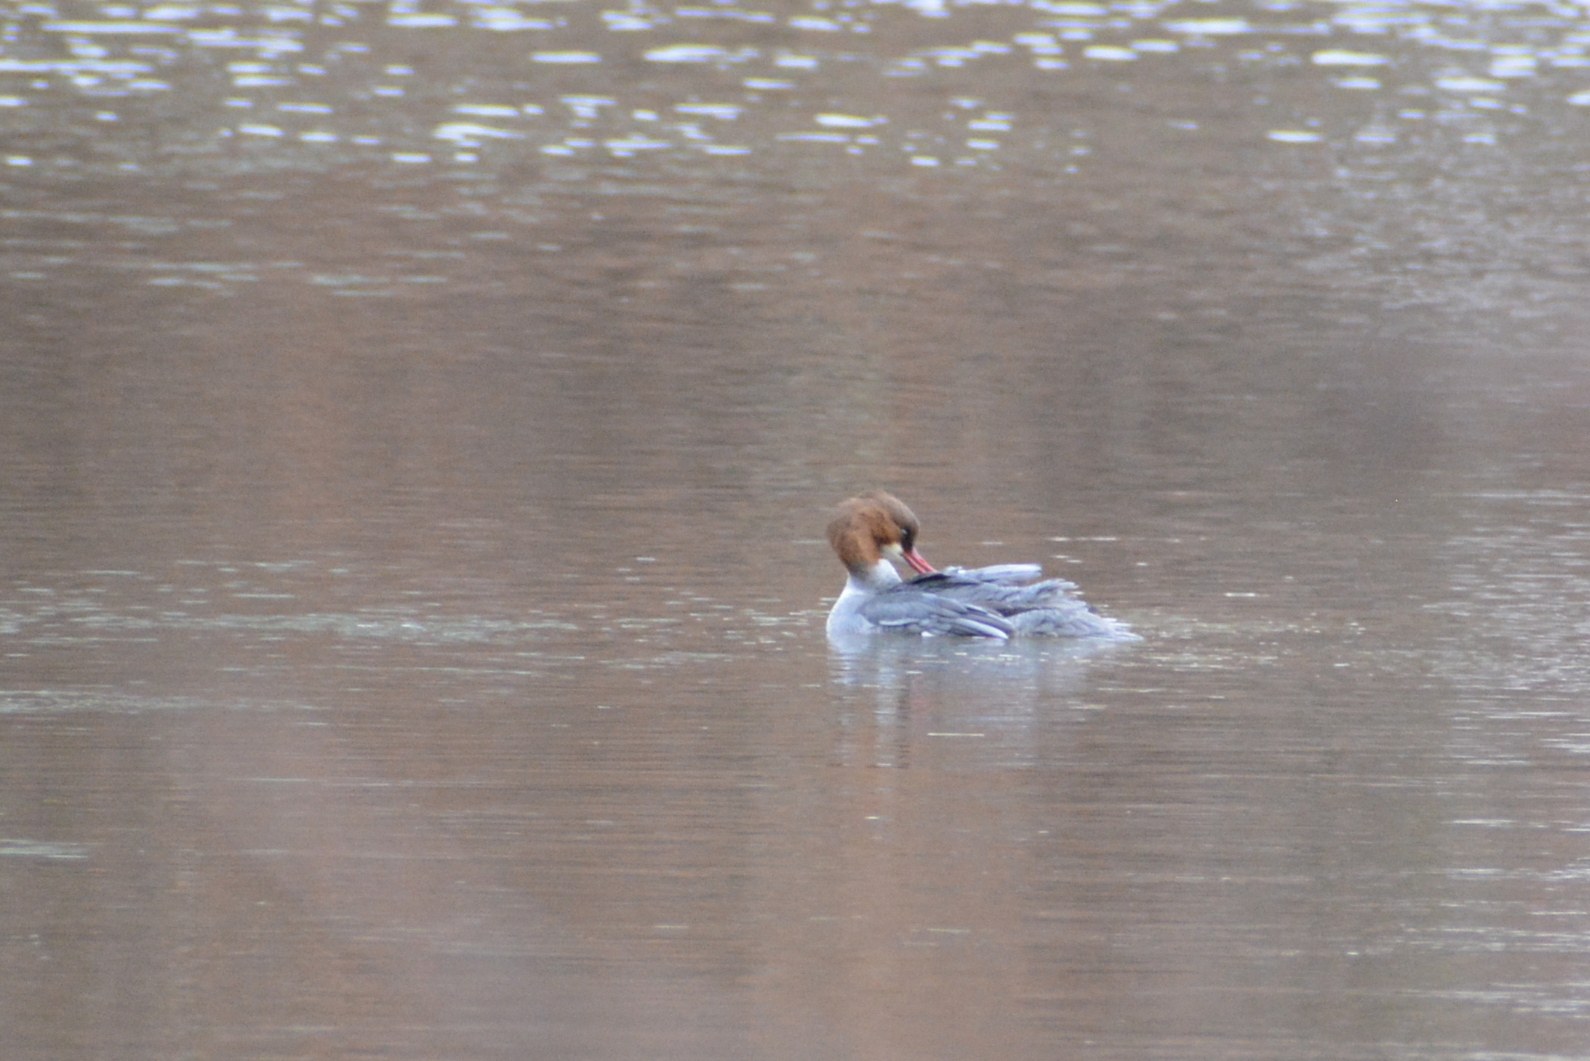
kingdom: Animalia
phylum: Chordata
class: Aves
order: Anseriformes
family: Anatidae
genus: Mergus
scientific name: Mergus merganser
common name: Common merganser
